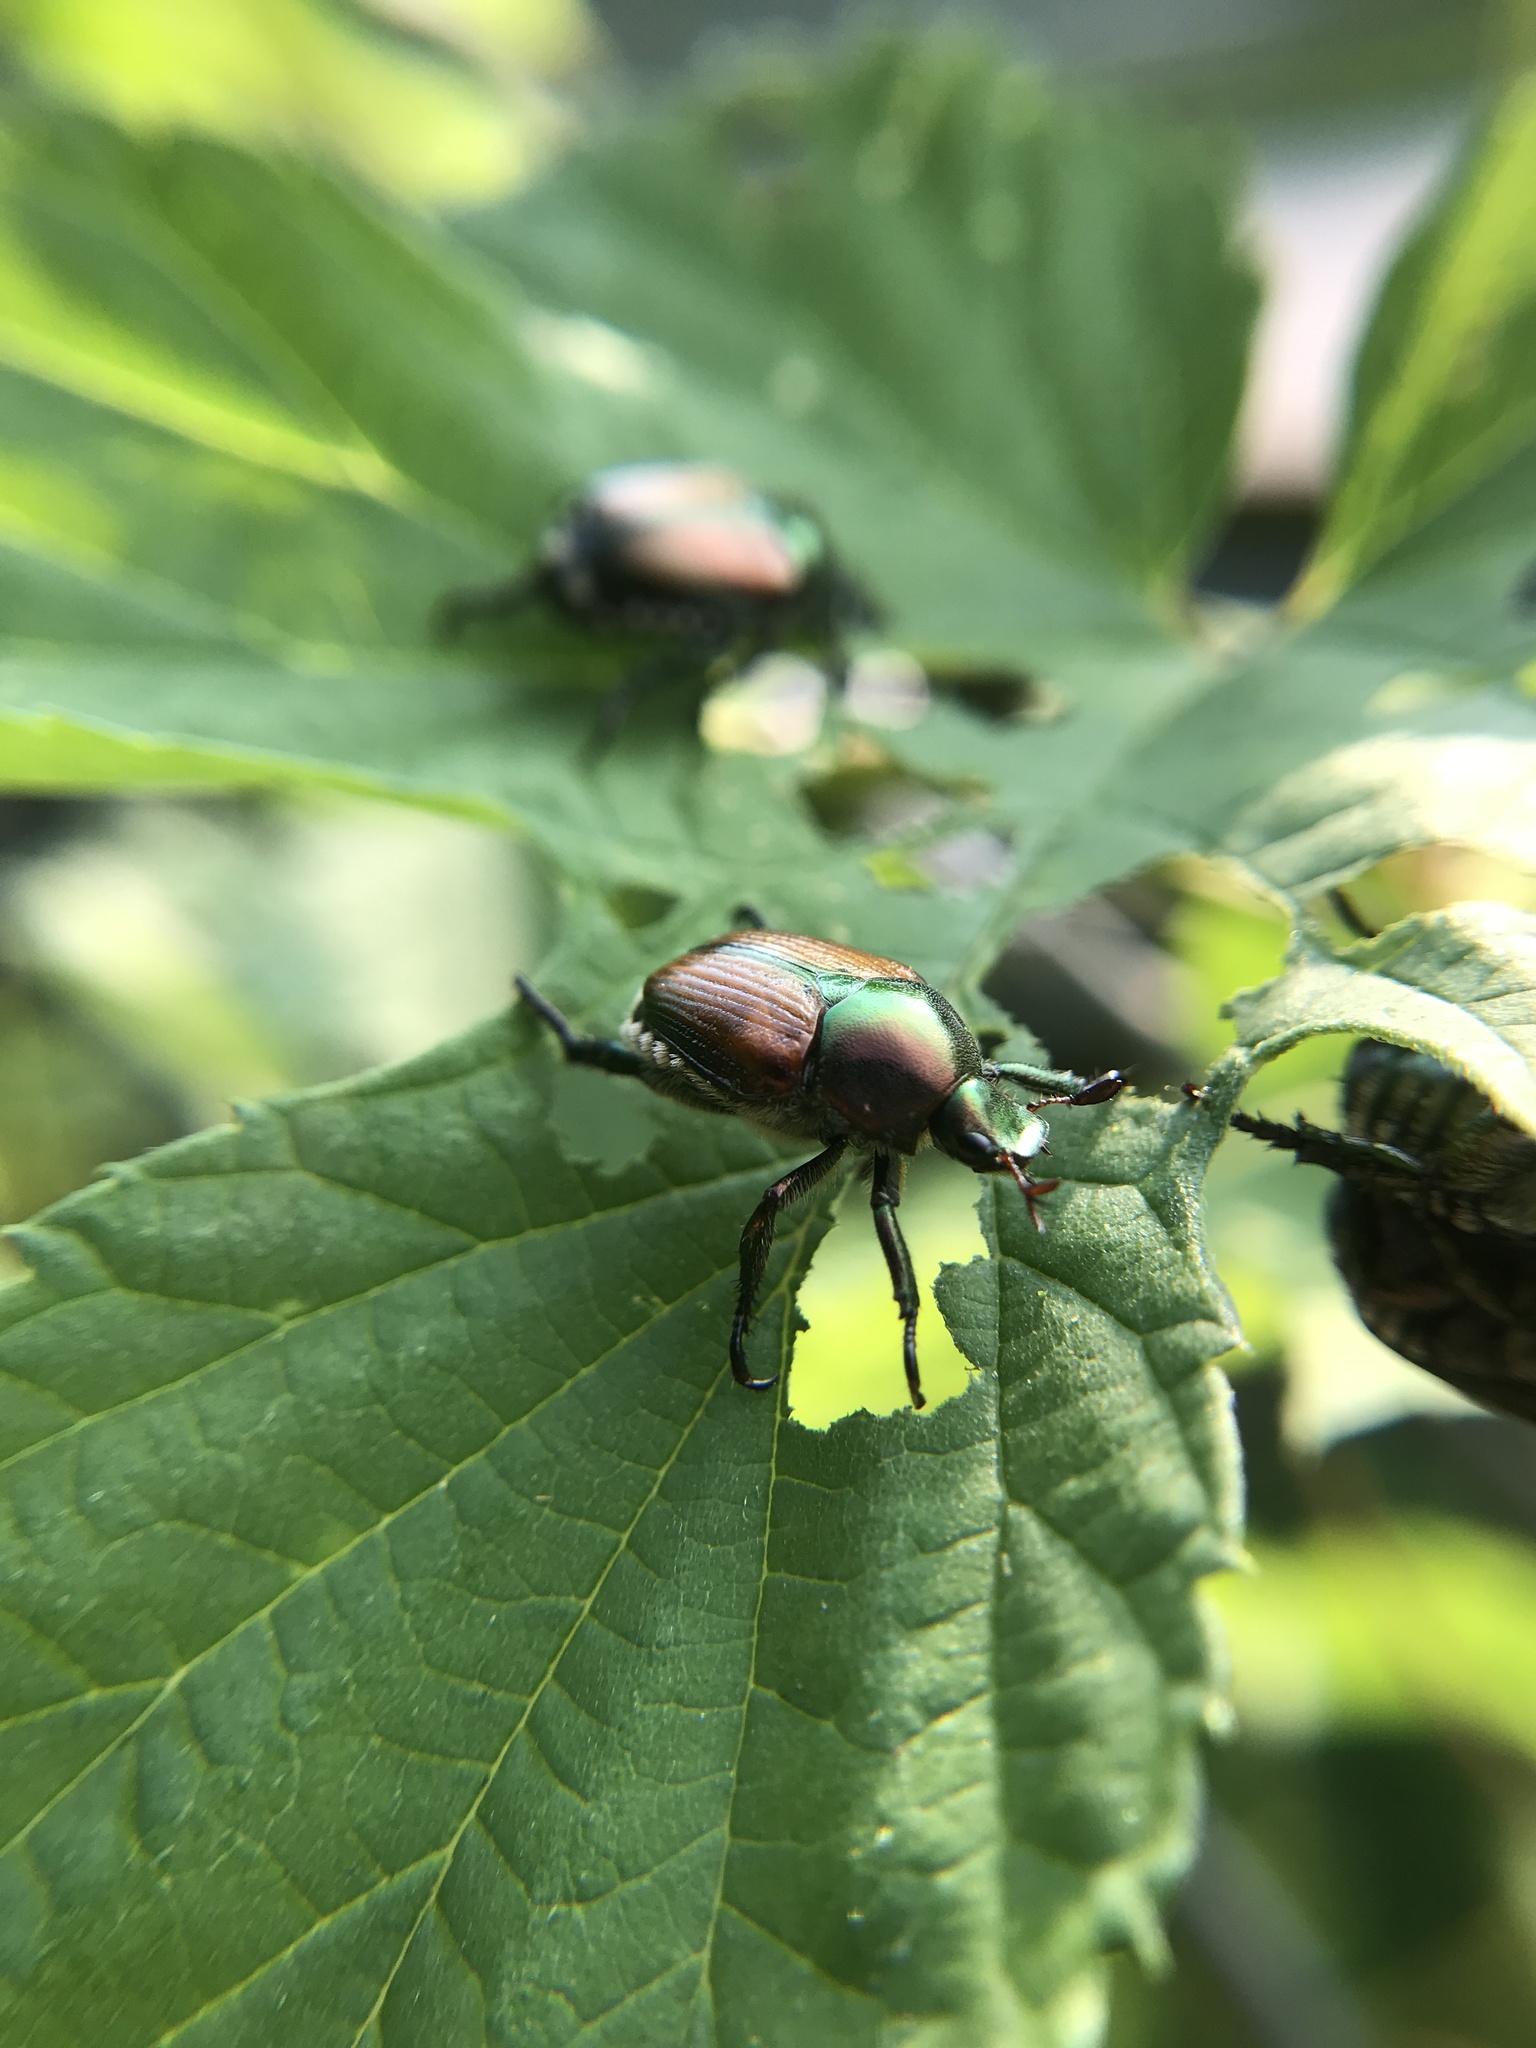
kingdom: Animalia
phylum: Arthropoda
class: Insecta
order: Coleoptera
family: Scarabaeidae
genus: Popillia
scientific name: Popillia japonica
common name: Japanese beetle
